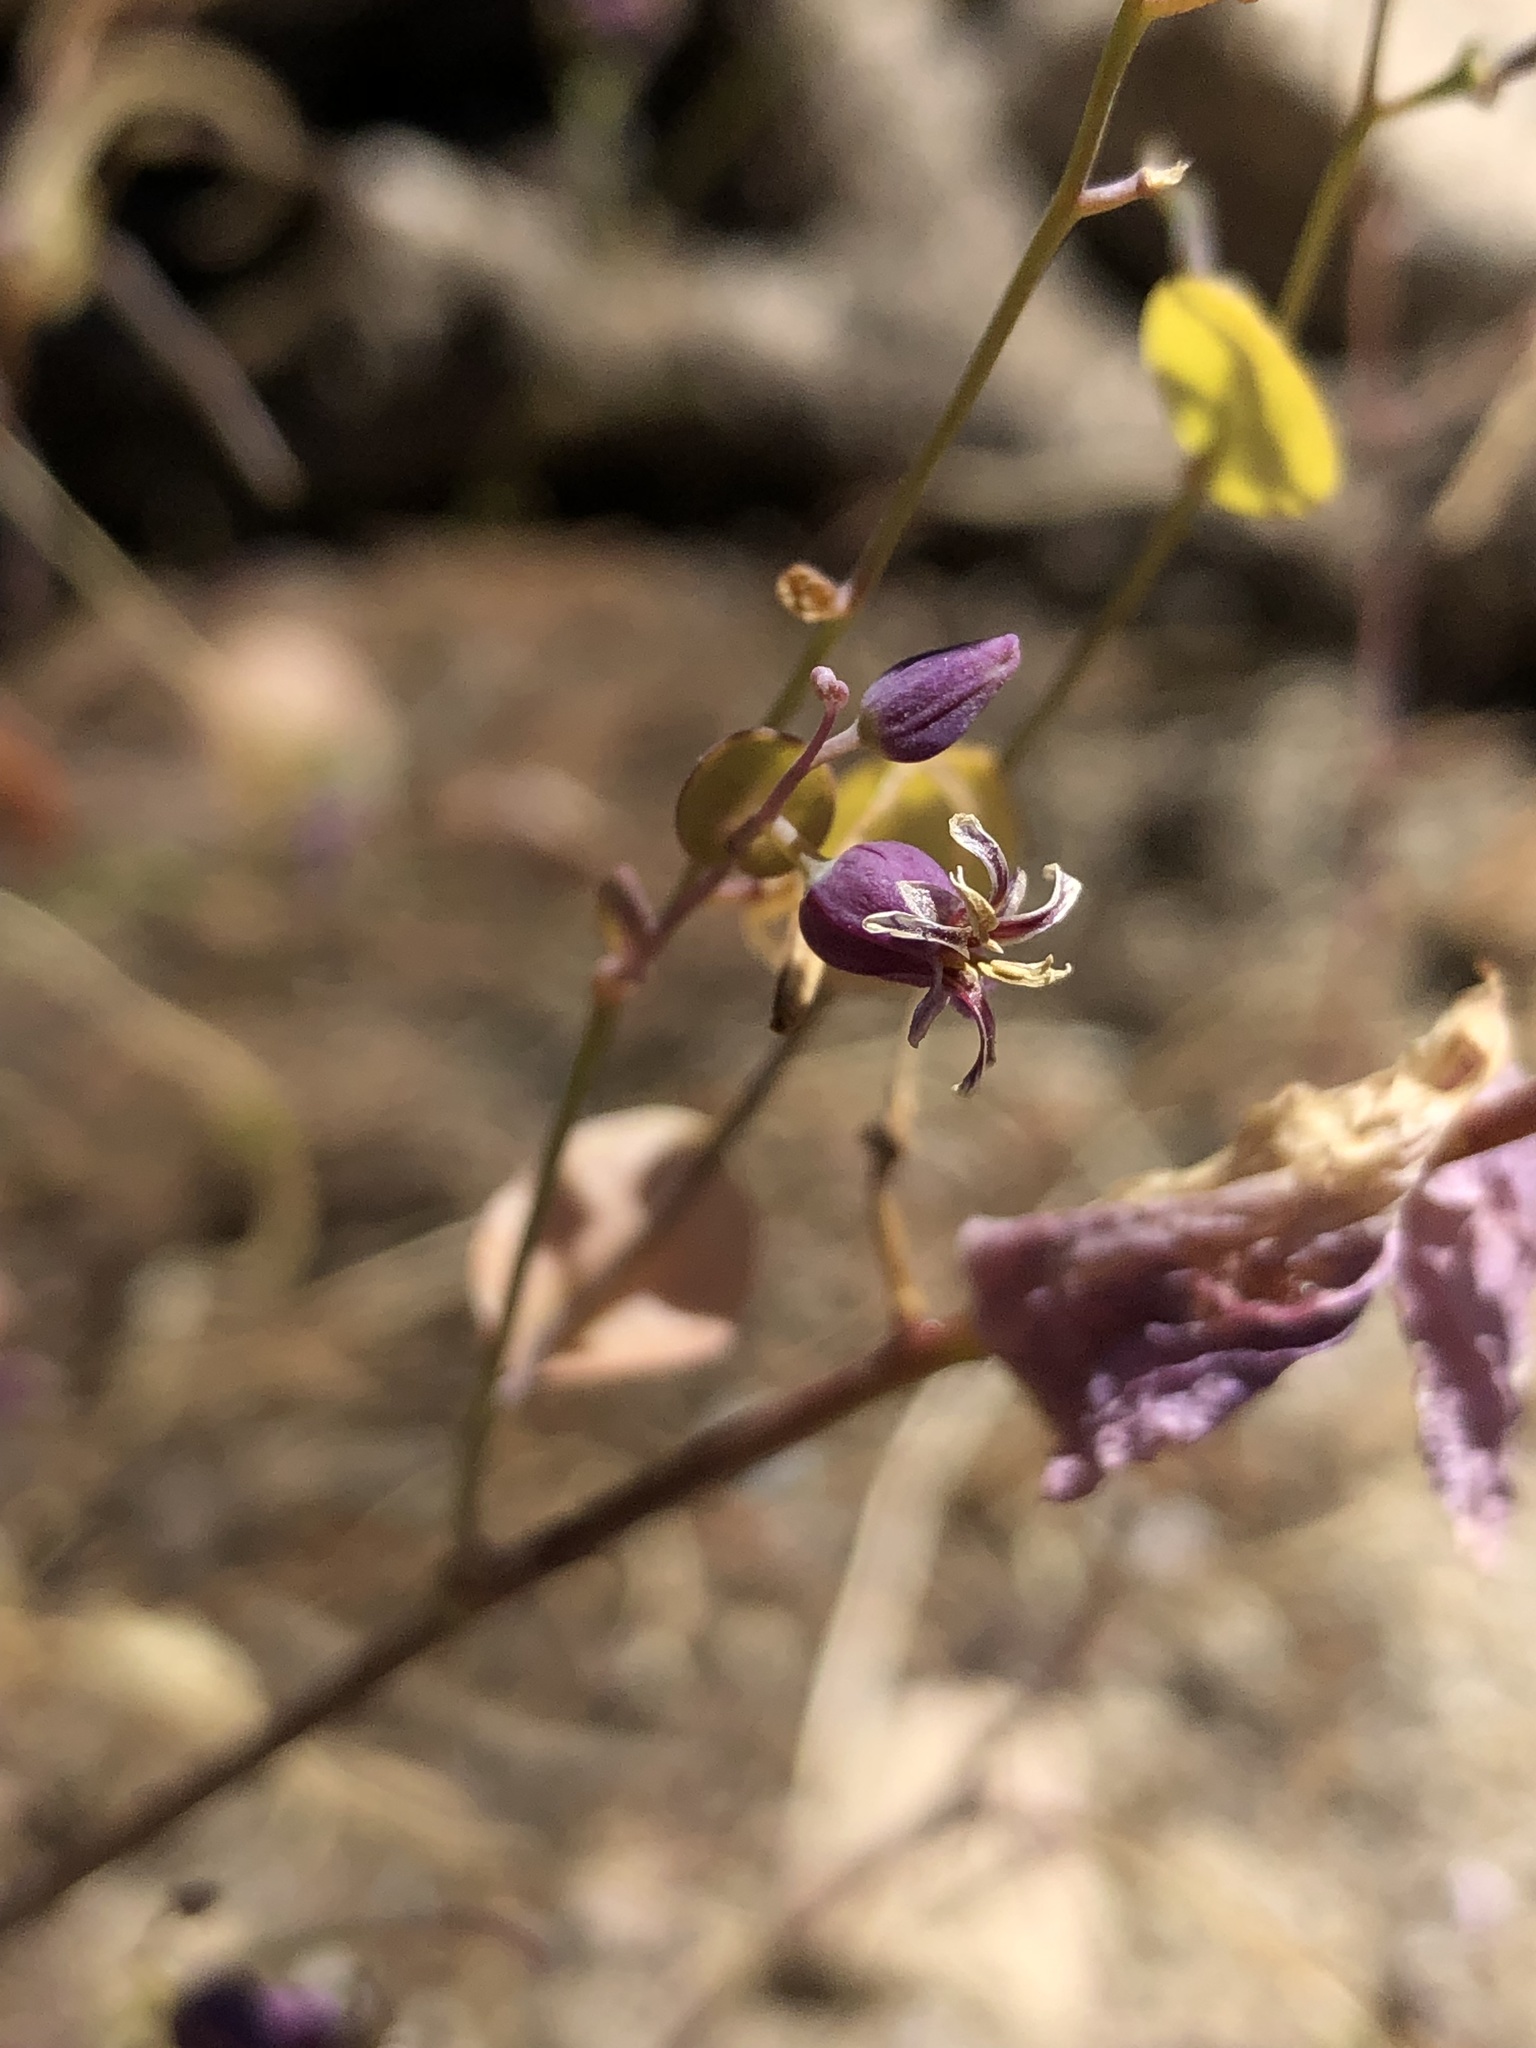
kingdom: Plantae
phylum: Tracheophyta
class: Magnoliopsida
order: Brassicales
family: Brassicaceae
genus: Streptanthus
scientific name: Streptanthus tortuosus
